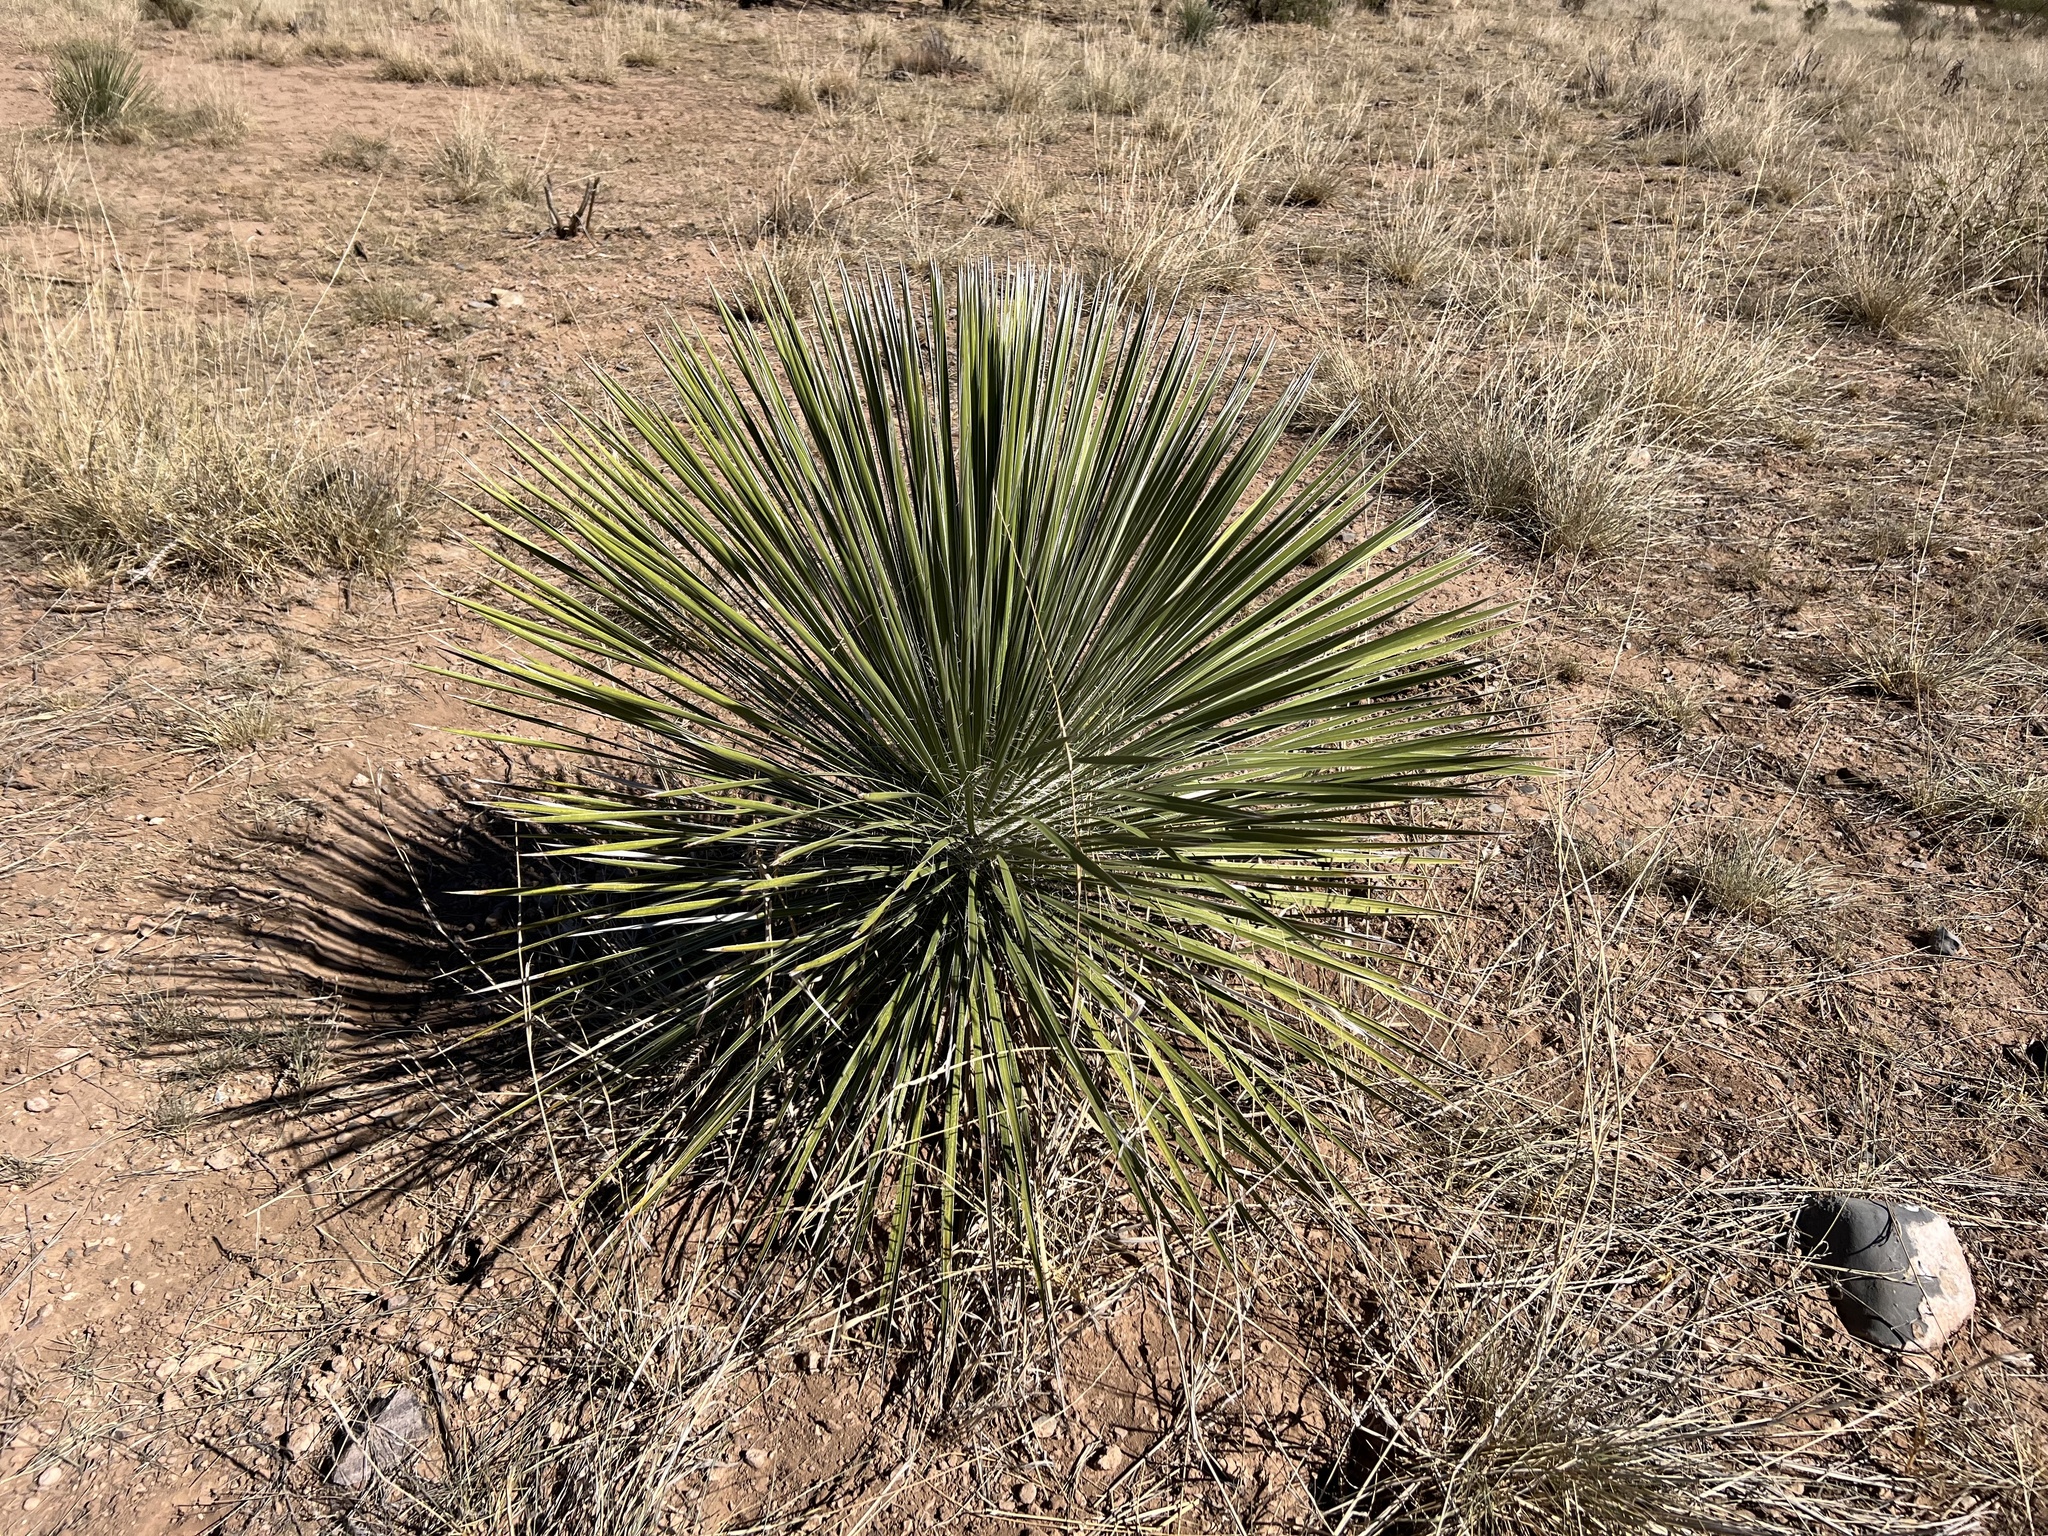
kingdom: Plantae
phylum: Tracheophyta
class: Liliopsida
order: Asparagales
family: Asparagaceae
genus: Yucca
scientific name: Yucca elata
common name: Palmella
